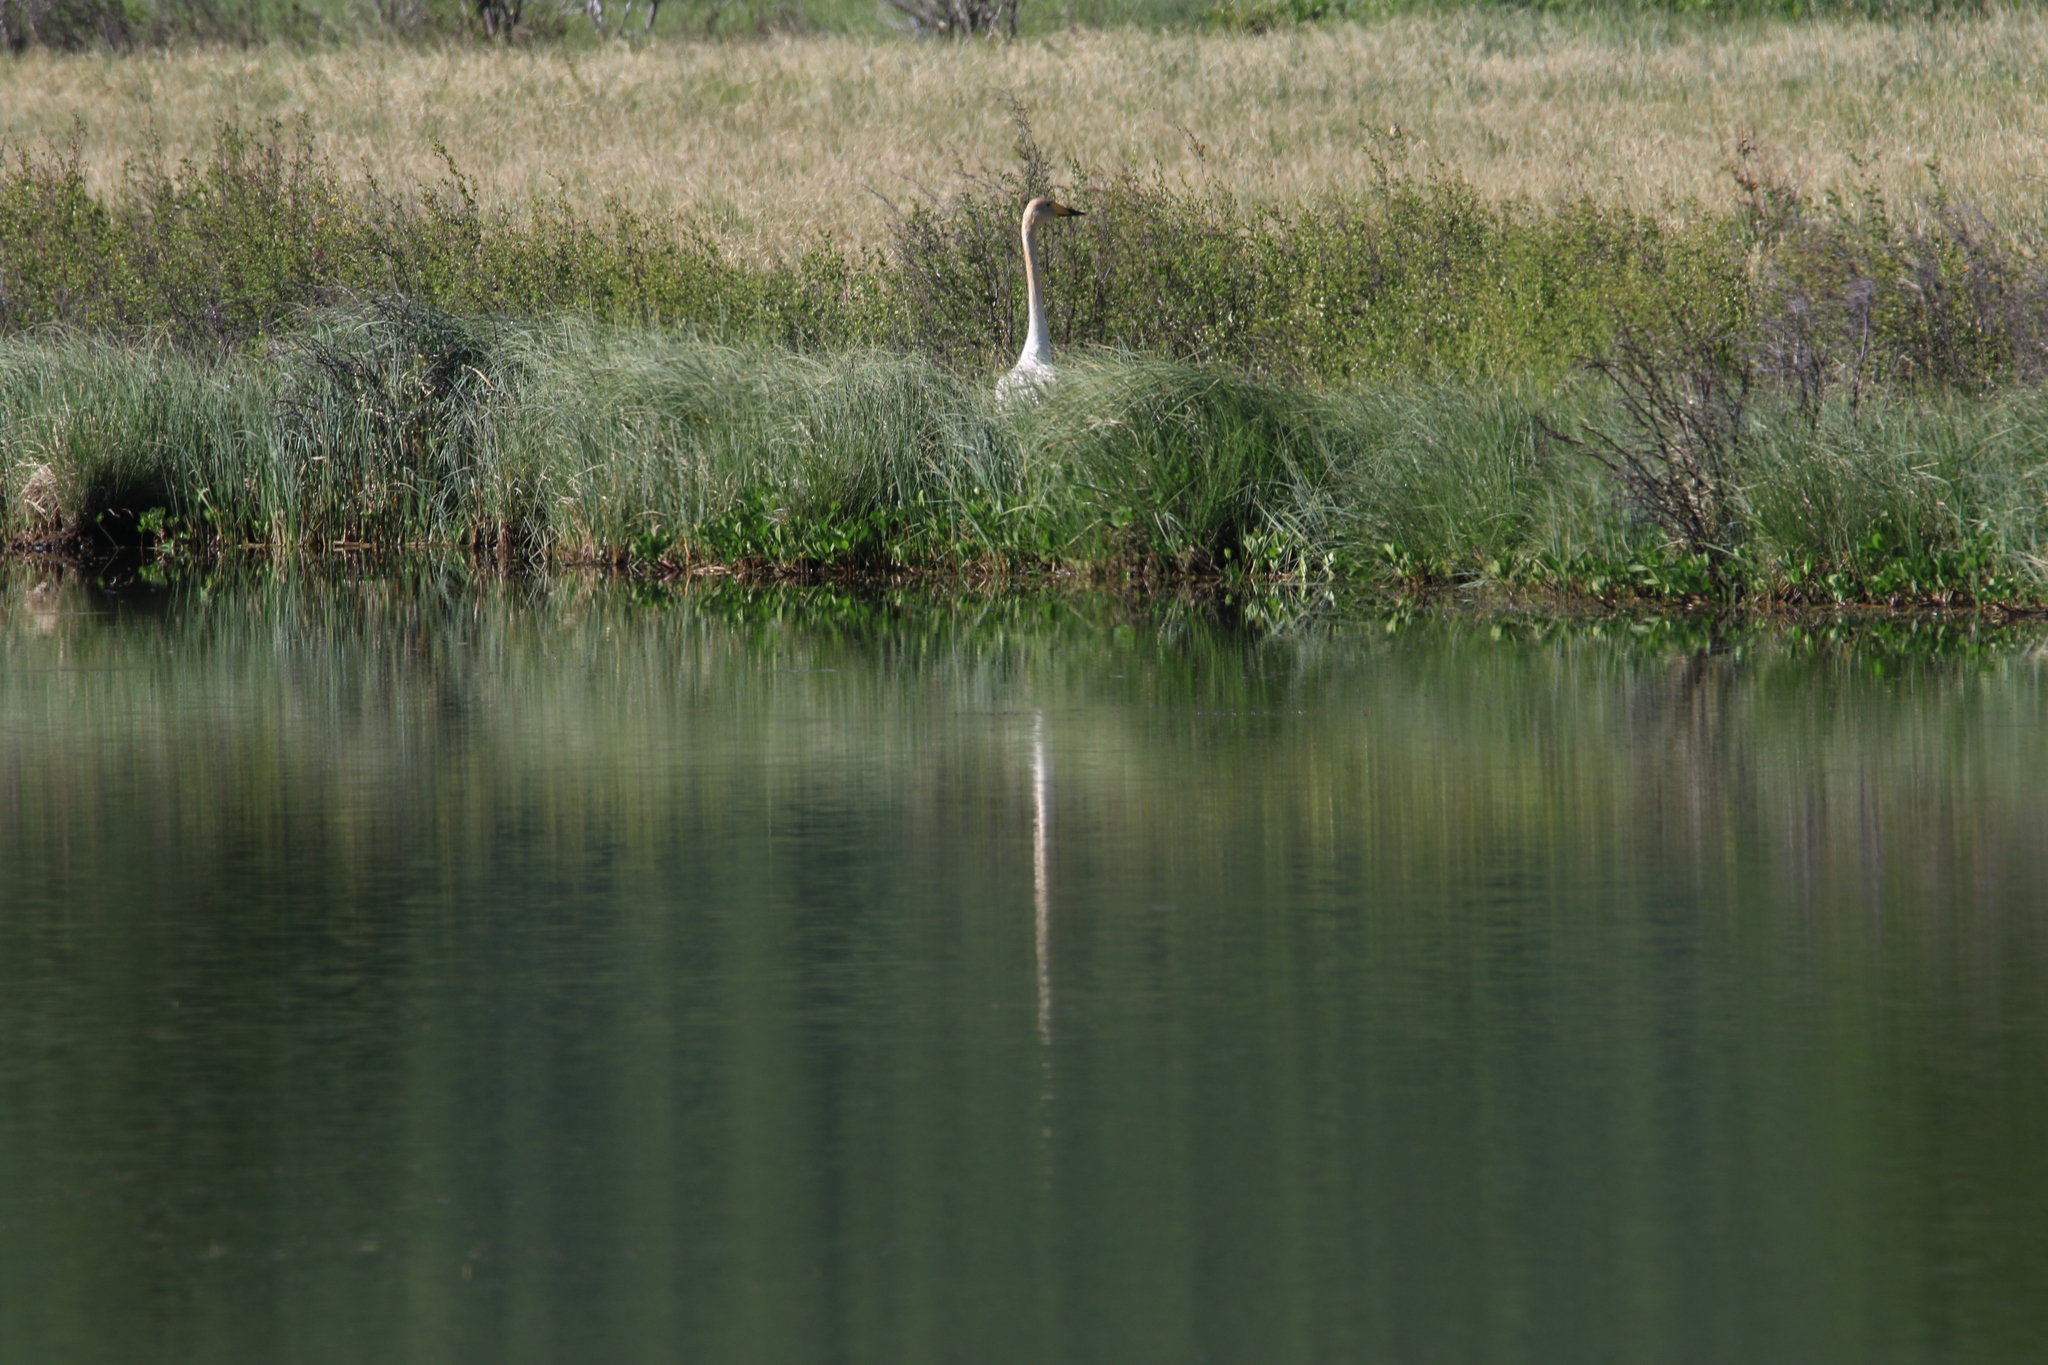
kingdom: Animalia
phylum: Chordata
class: Aves
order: Anseriformes
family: Anatidae
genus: Cygnus
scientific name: Cygnus cygnus
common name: Whooper swan
